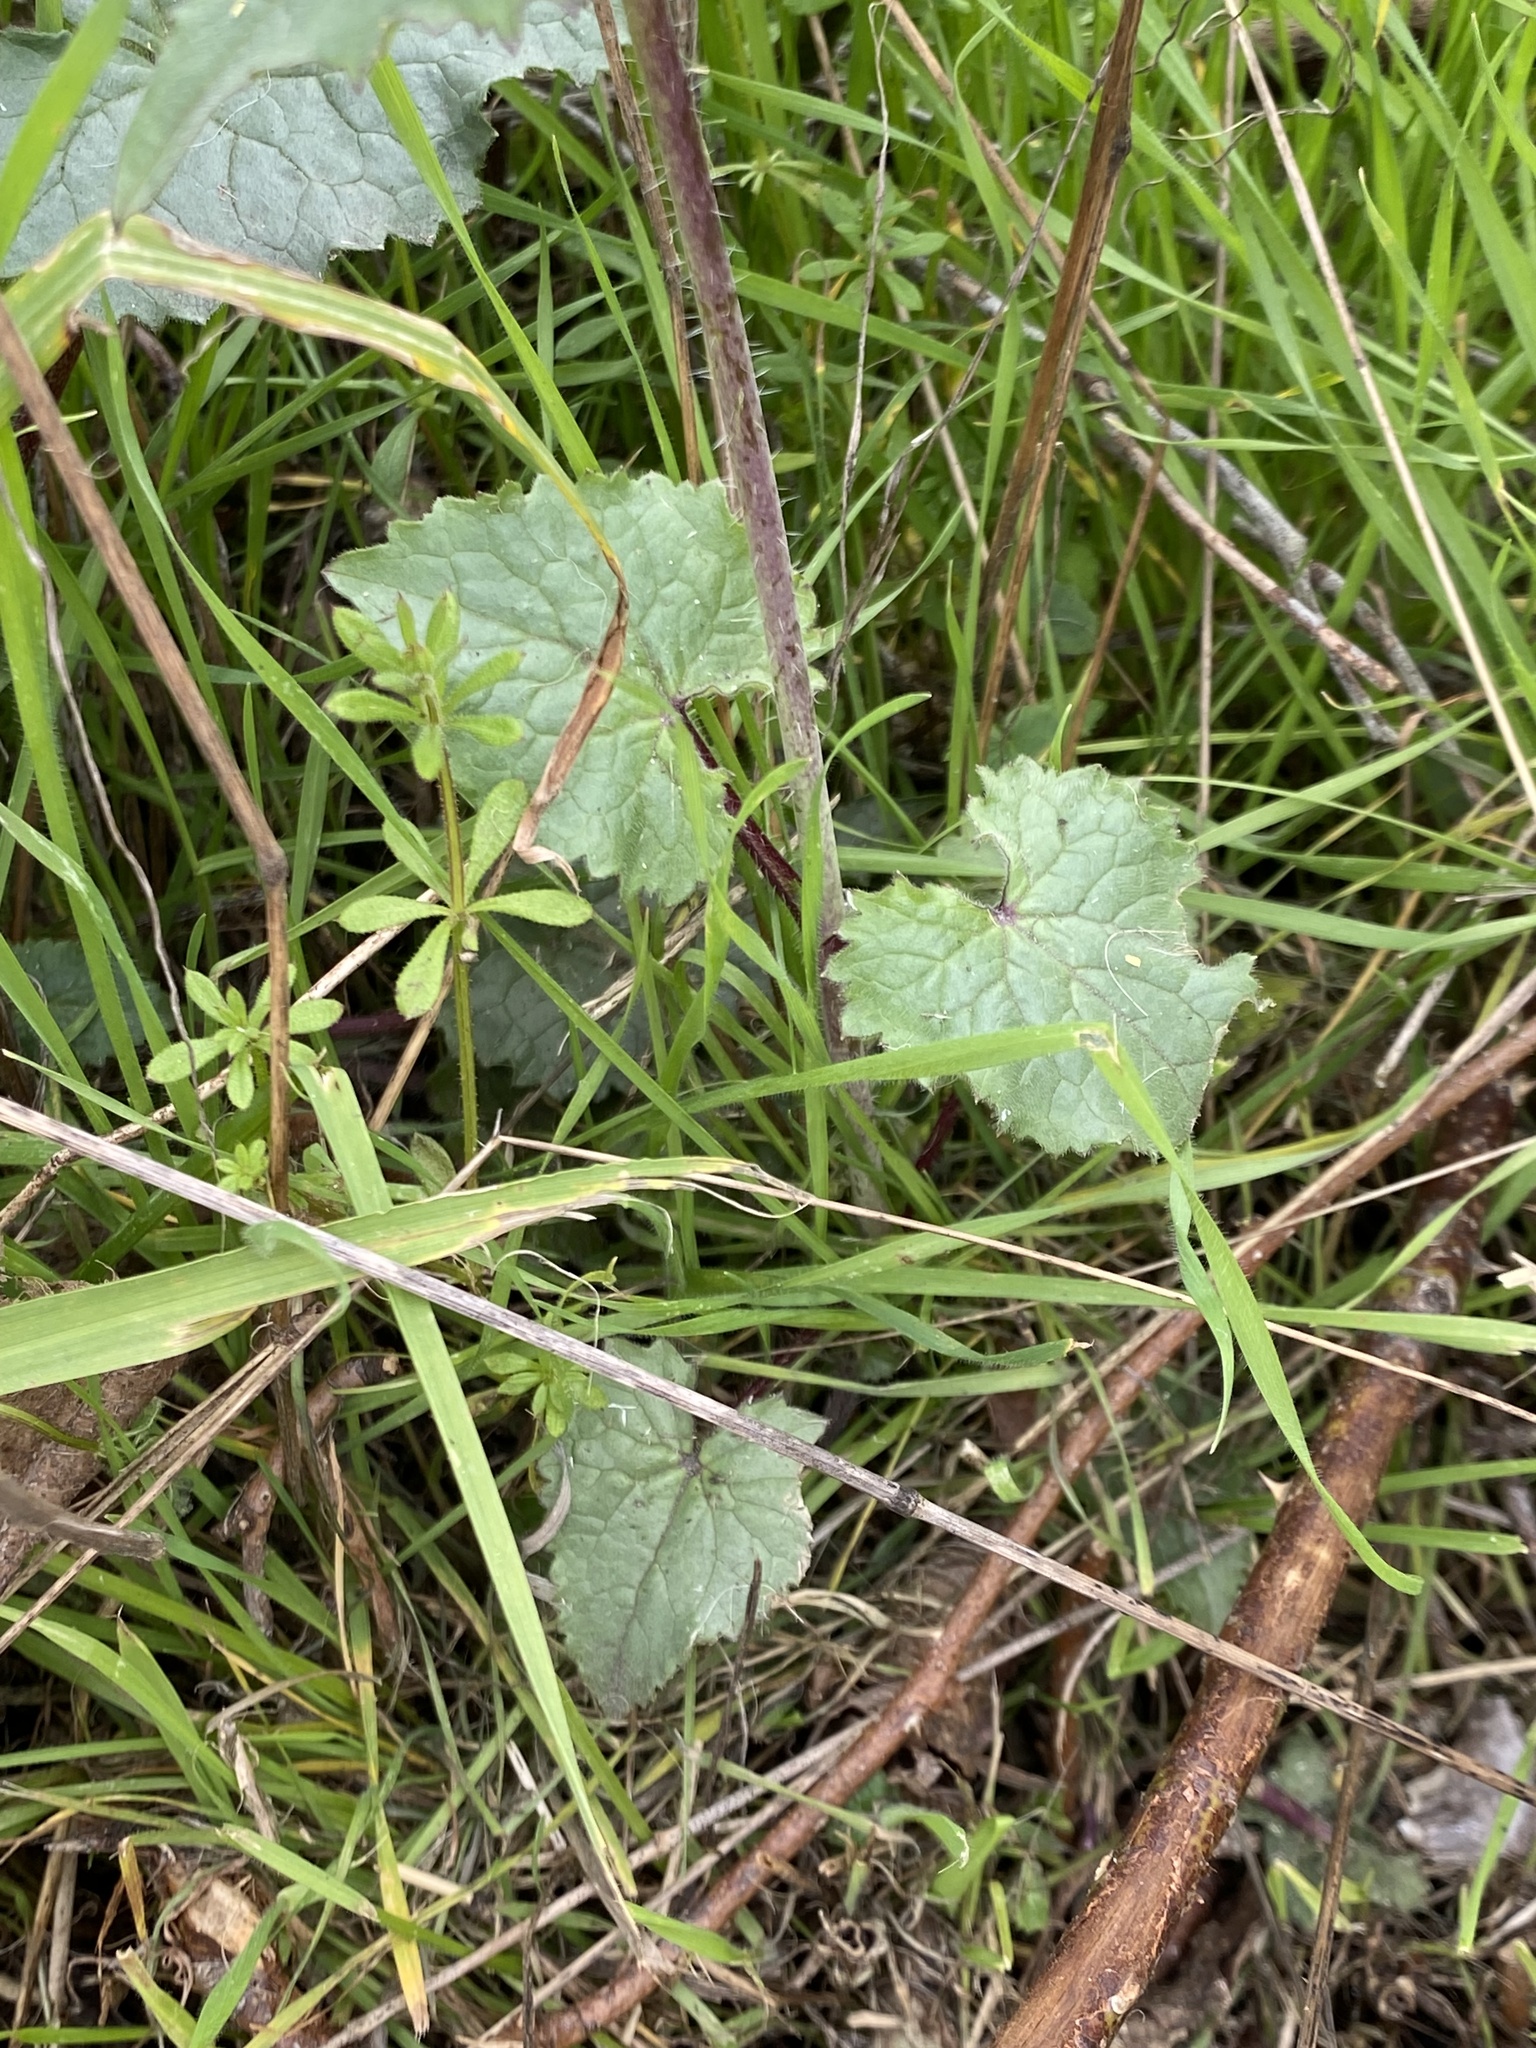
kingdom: Plantae
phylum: Tracheophyta
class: Magnoliopsida
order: Brassicales
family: Brassicaceae
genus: Lunaria
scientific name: Lunaria annua
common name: Honesty
